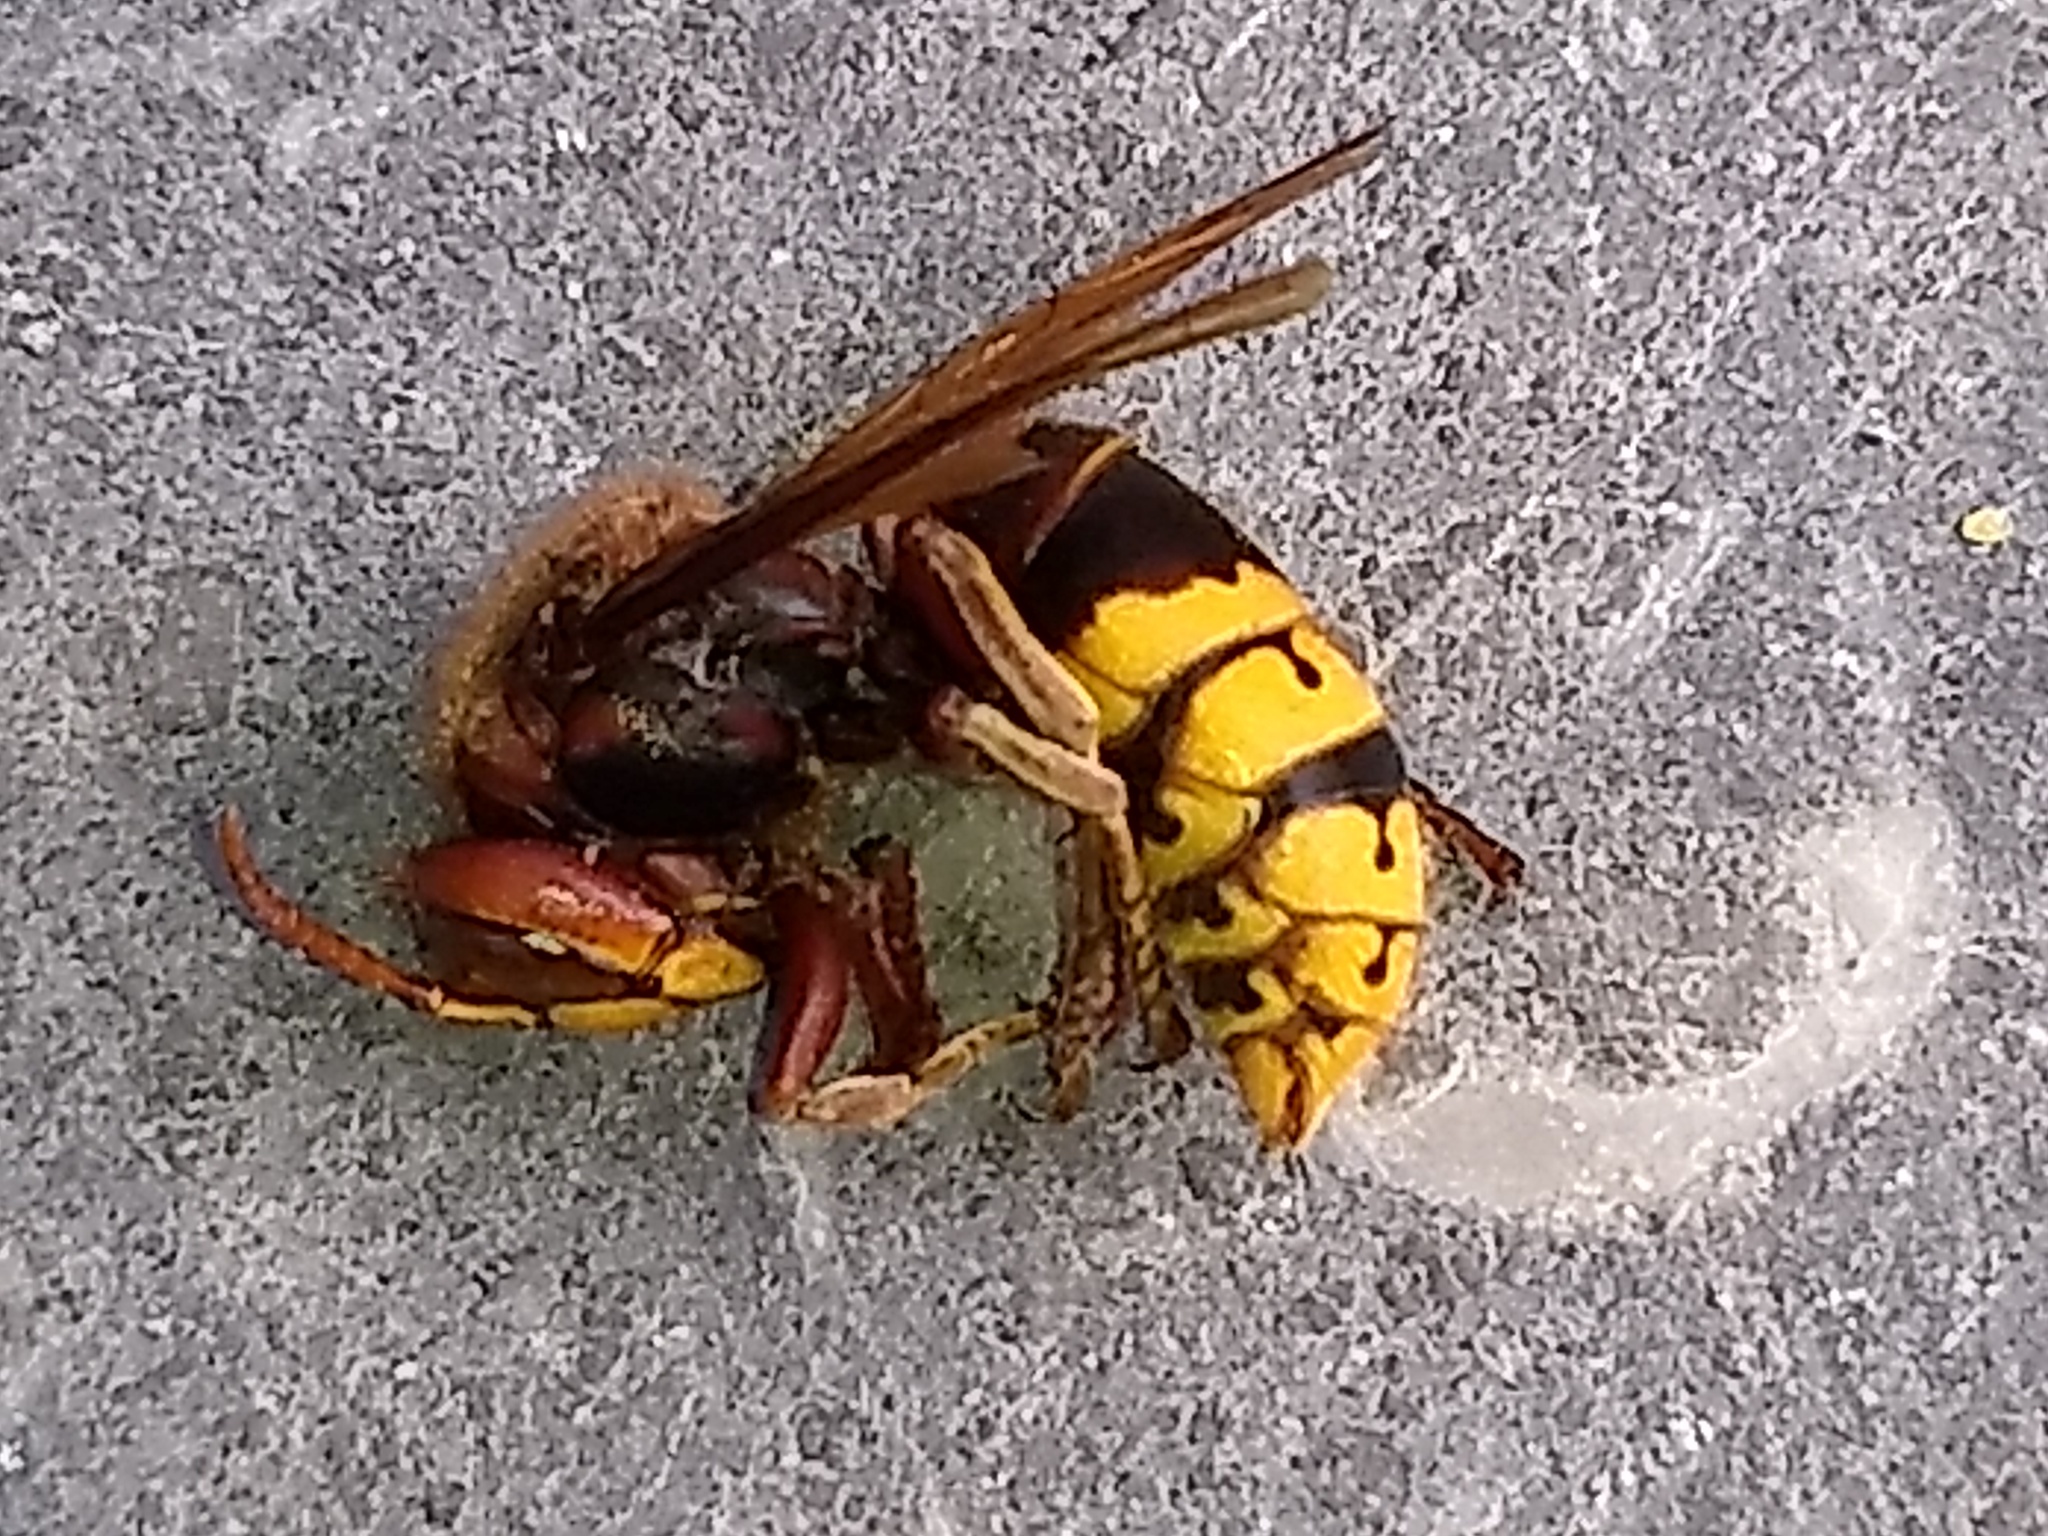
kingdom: Animalia
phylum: Arthropoda
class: Insecta
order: Hymenoptera
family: Vespidae
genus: Vespa
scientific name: Vespa crabro
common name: Hornet
